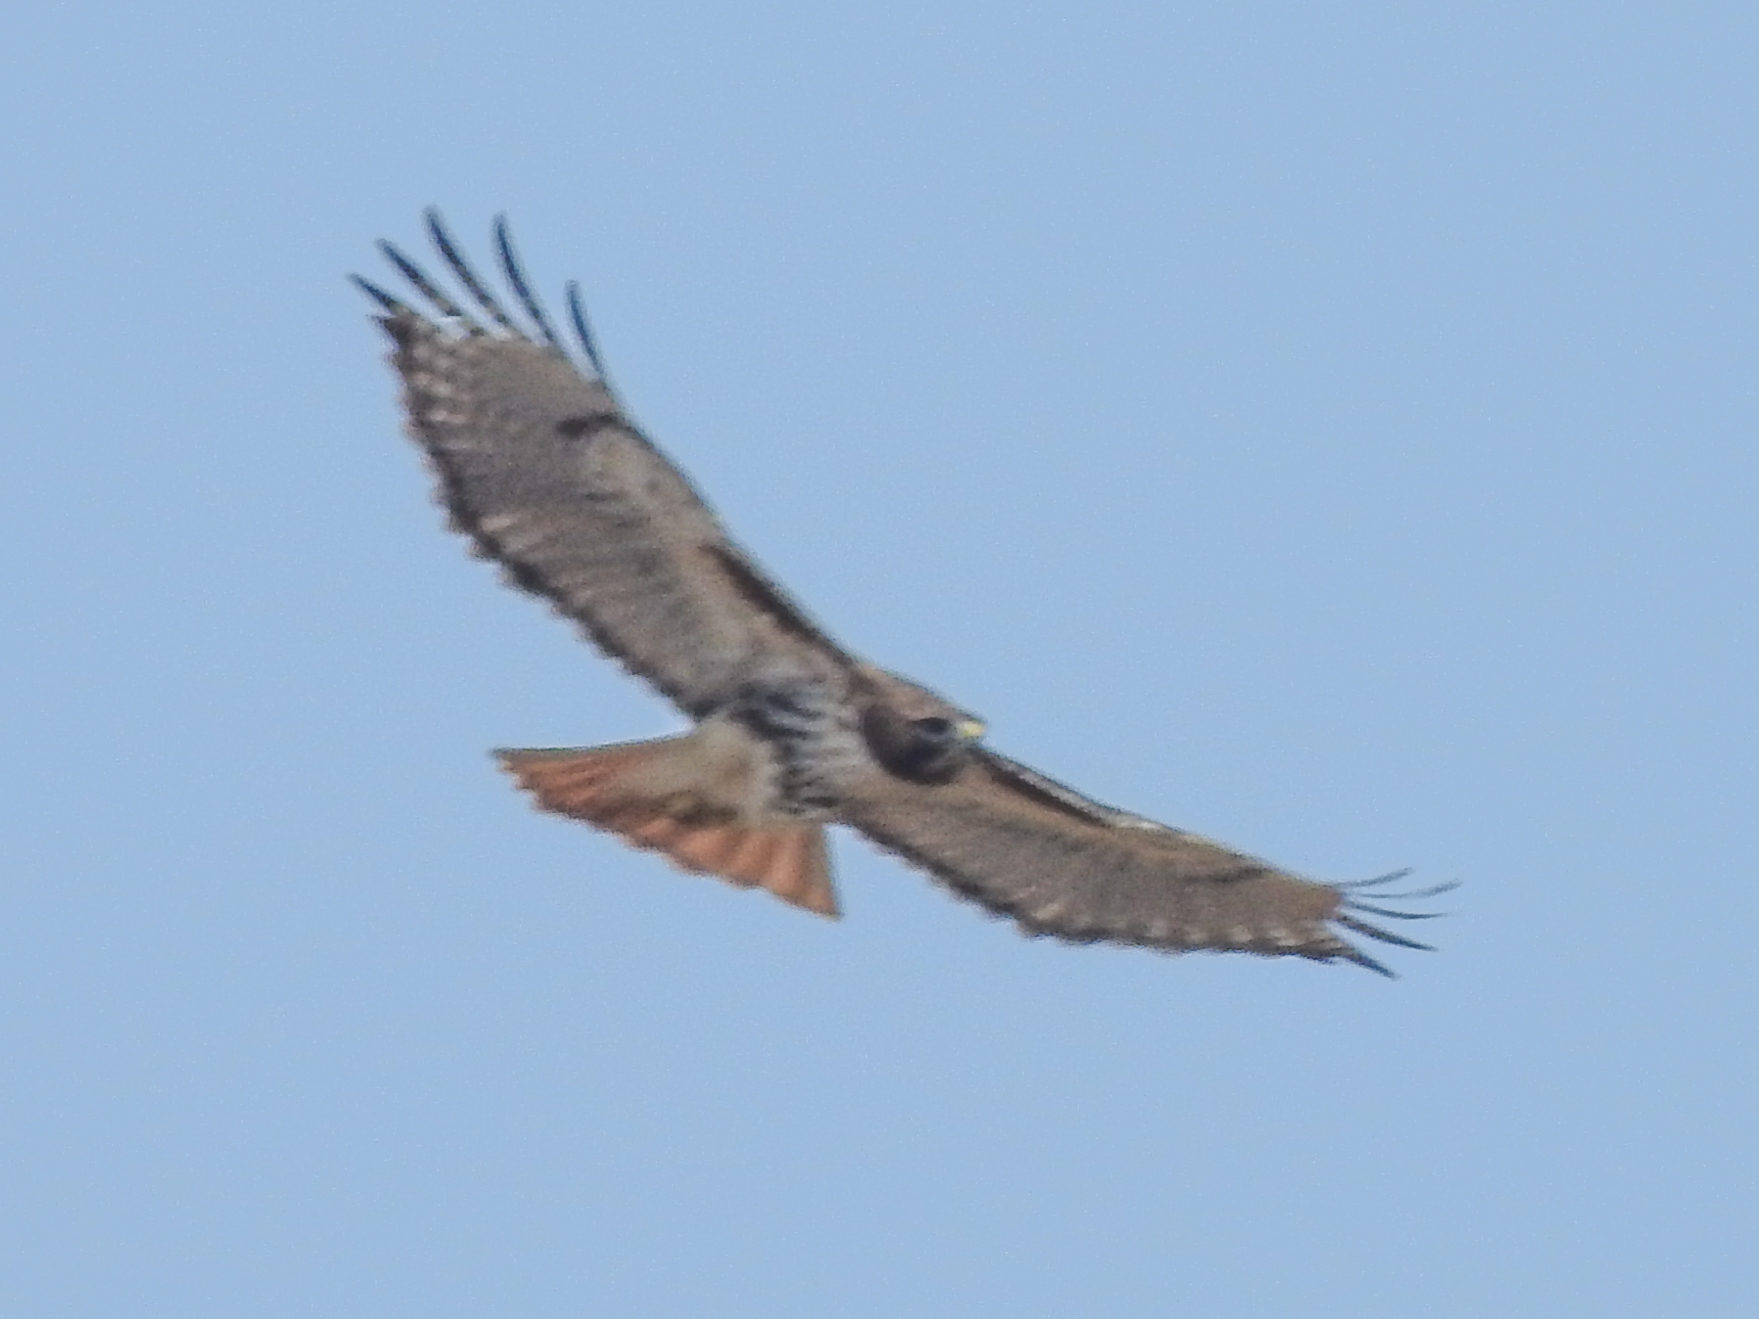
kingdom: Animalia
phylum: Chordata
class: Aves
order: Accipitriformes
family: Accipitridae
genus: Buteo
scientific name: Buteo jamaicensis
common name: Red-tailed hawk
